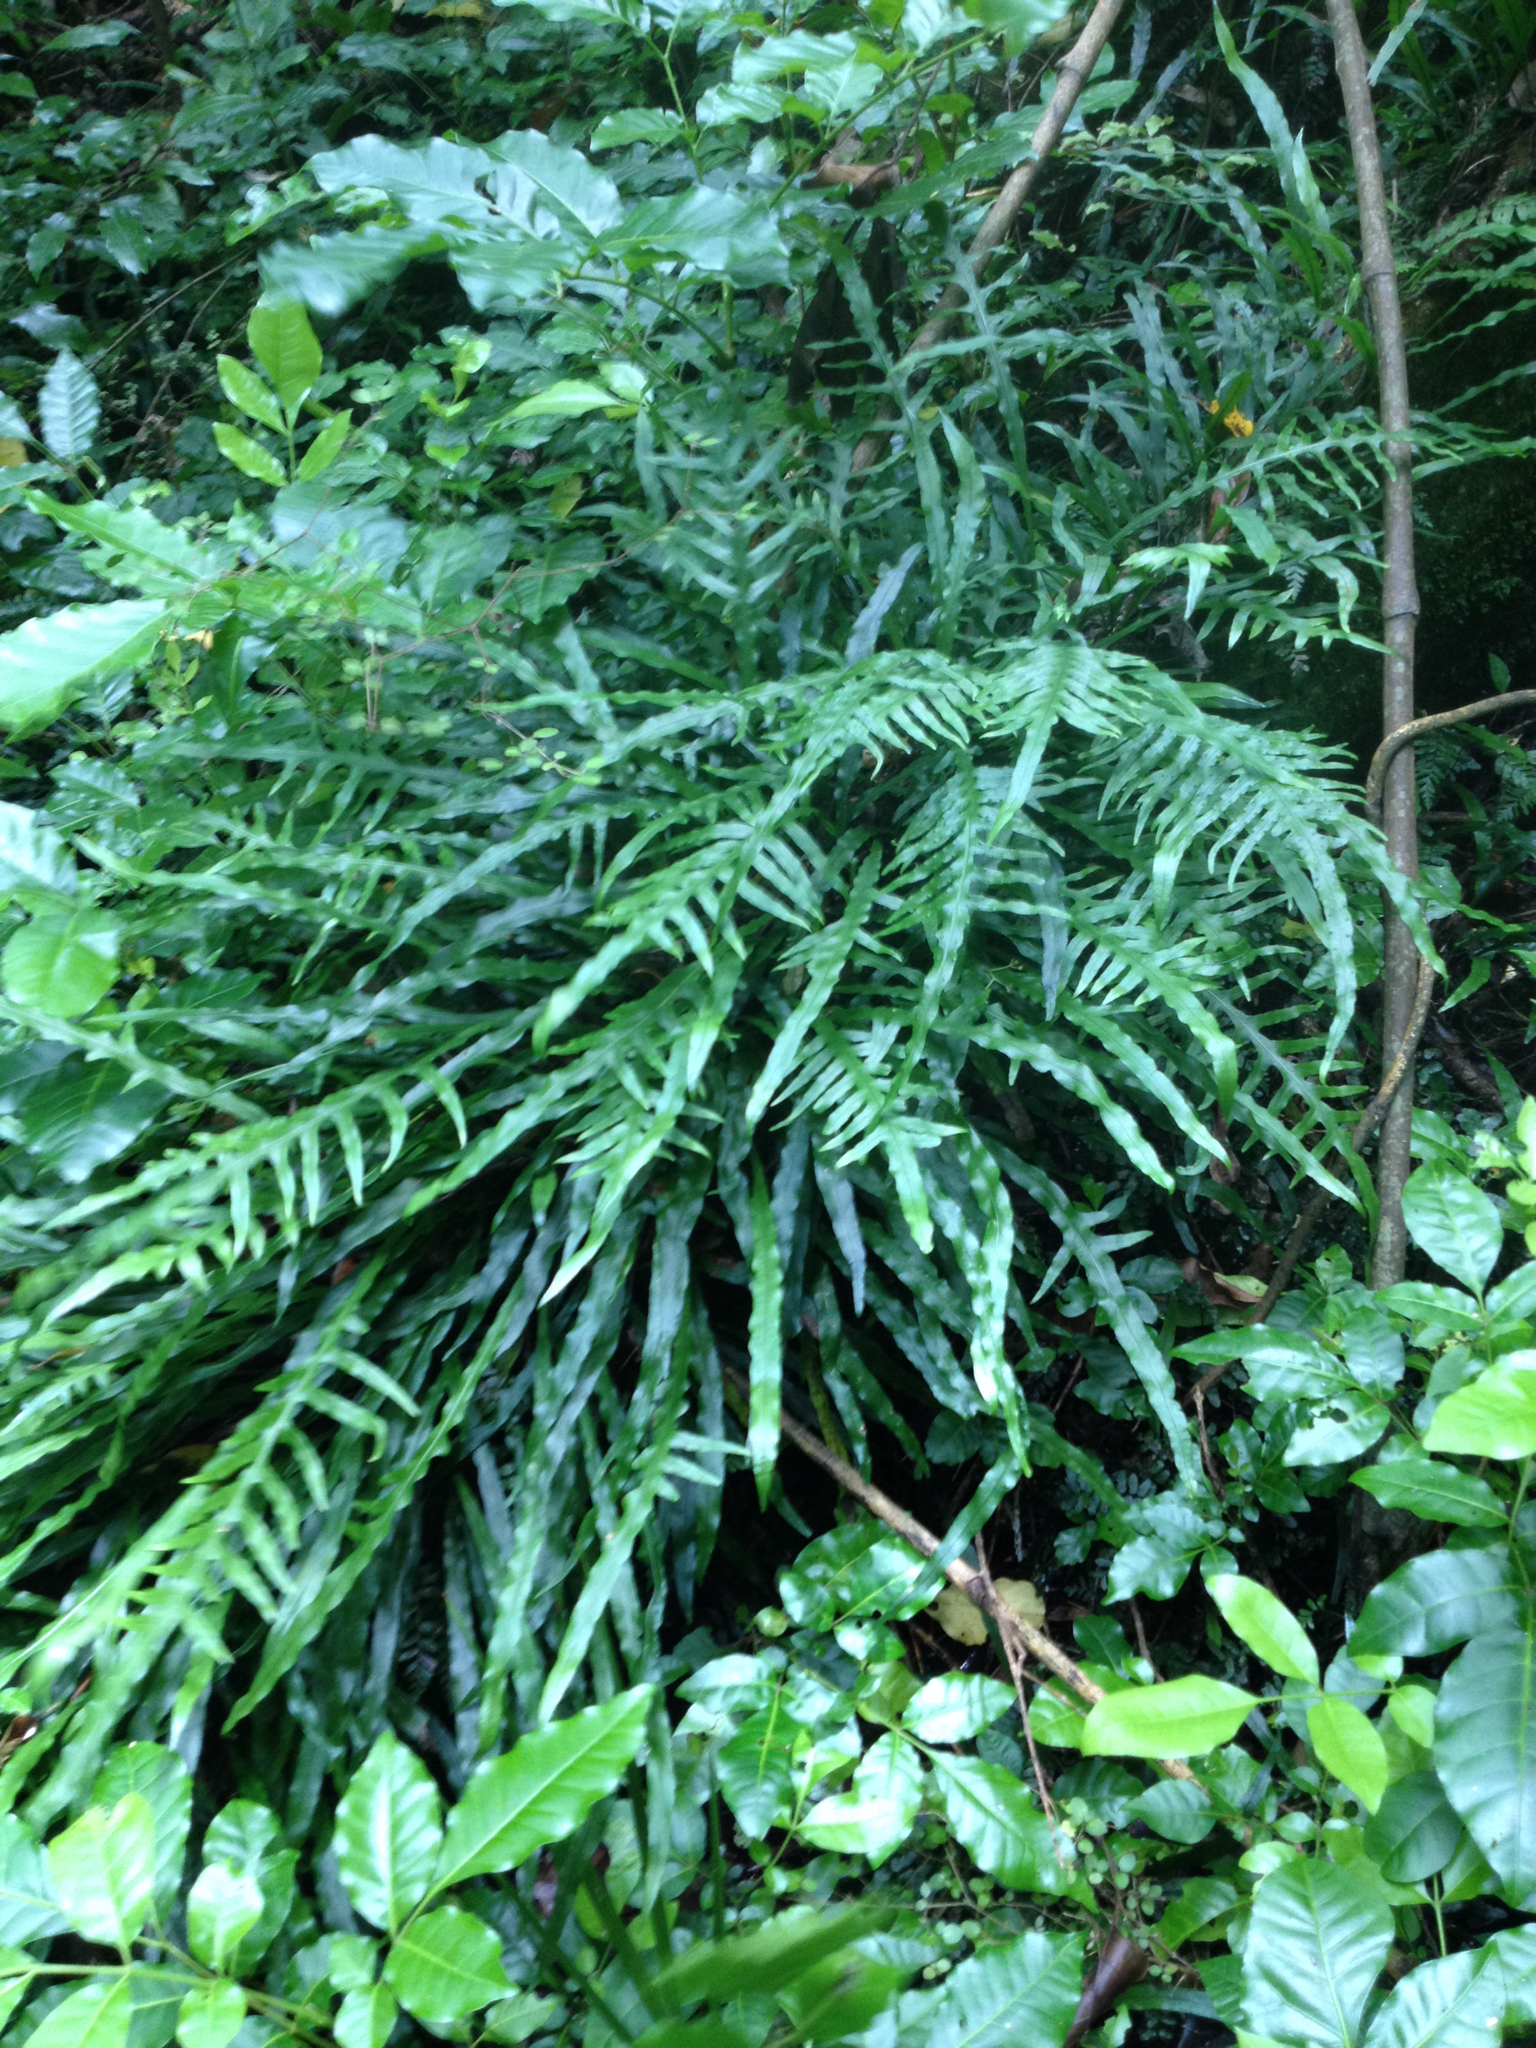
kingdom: Plantae
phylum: Tracheophyta
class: Polypodiopsida
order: Polypodiales
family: Polypodiaceae
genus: Lecanopteris
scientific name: Lecanopteris scandens
